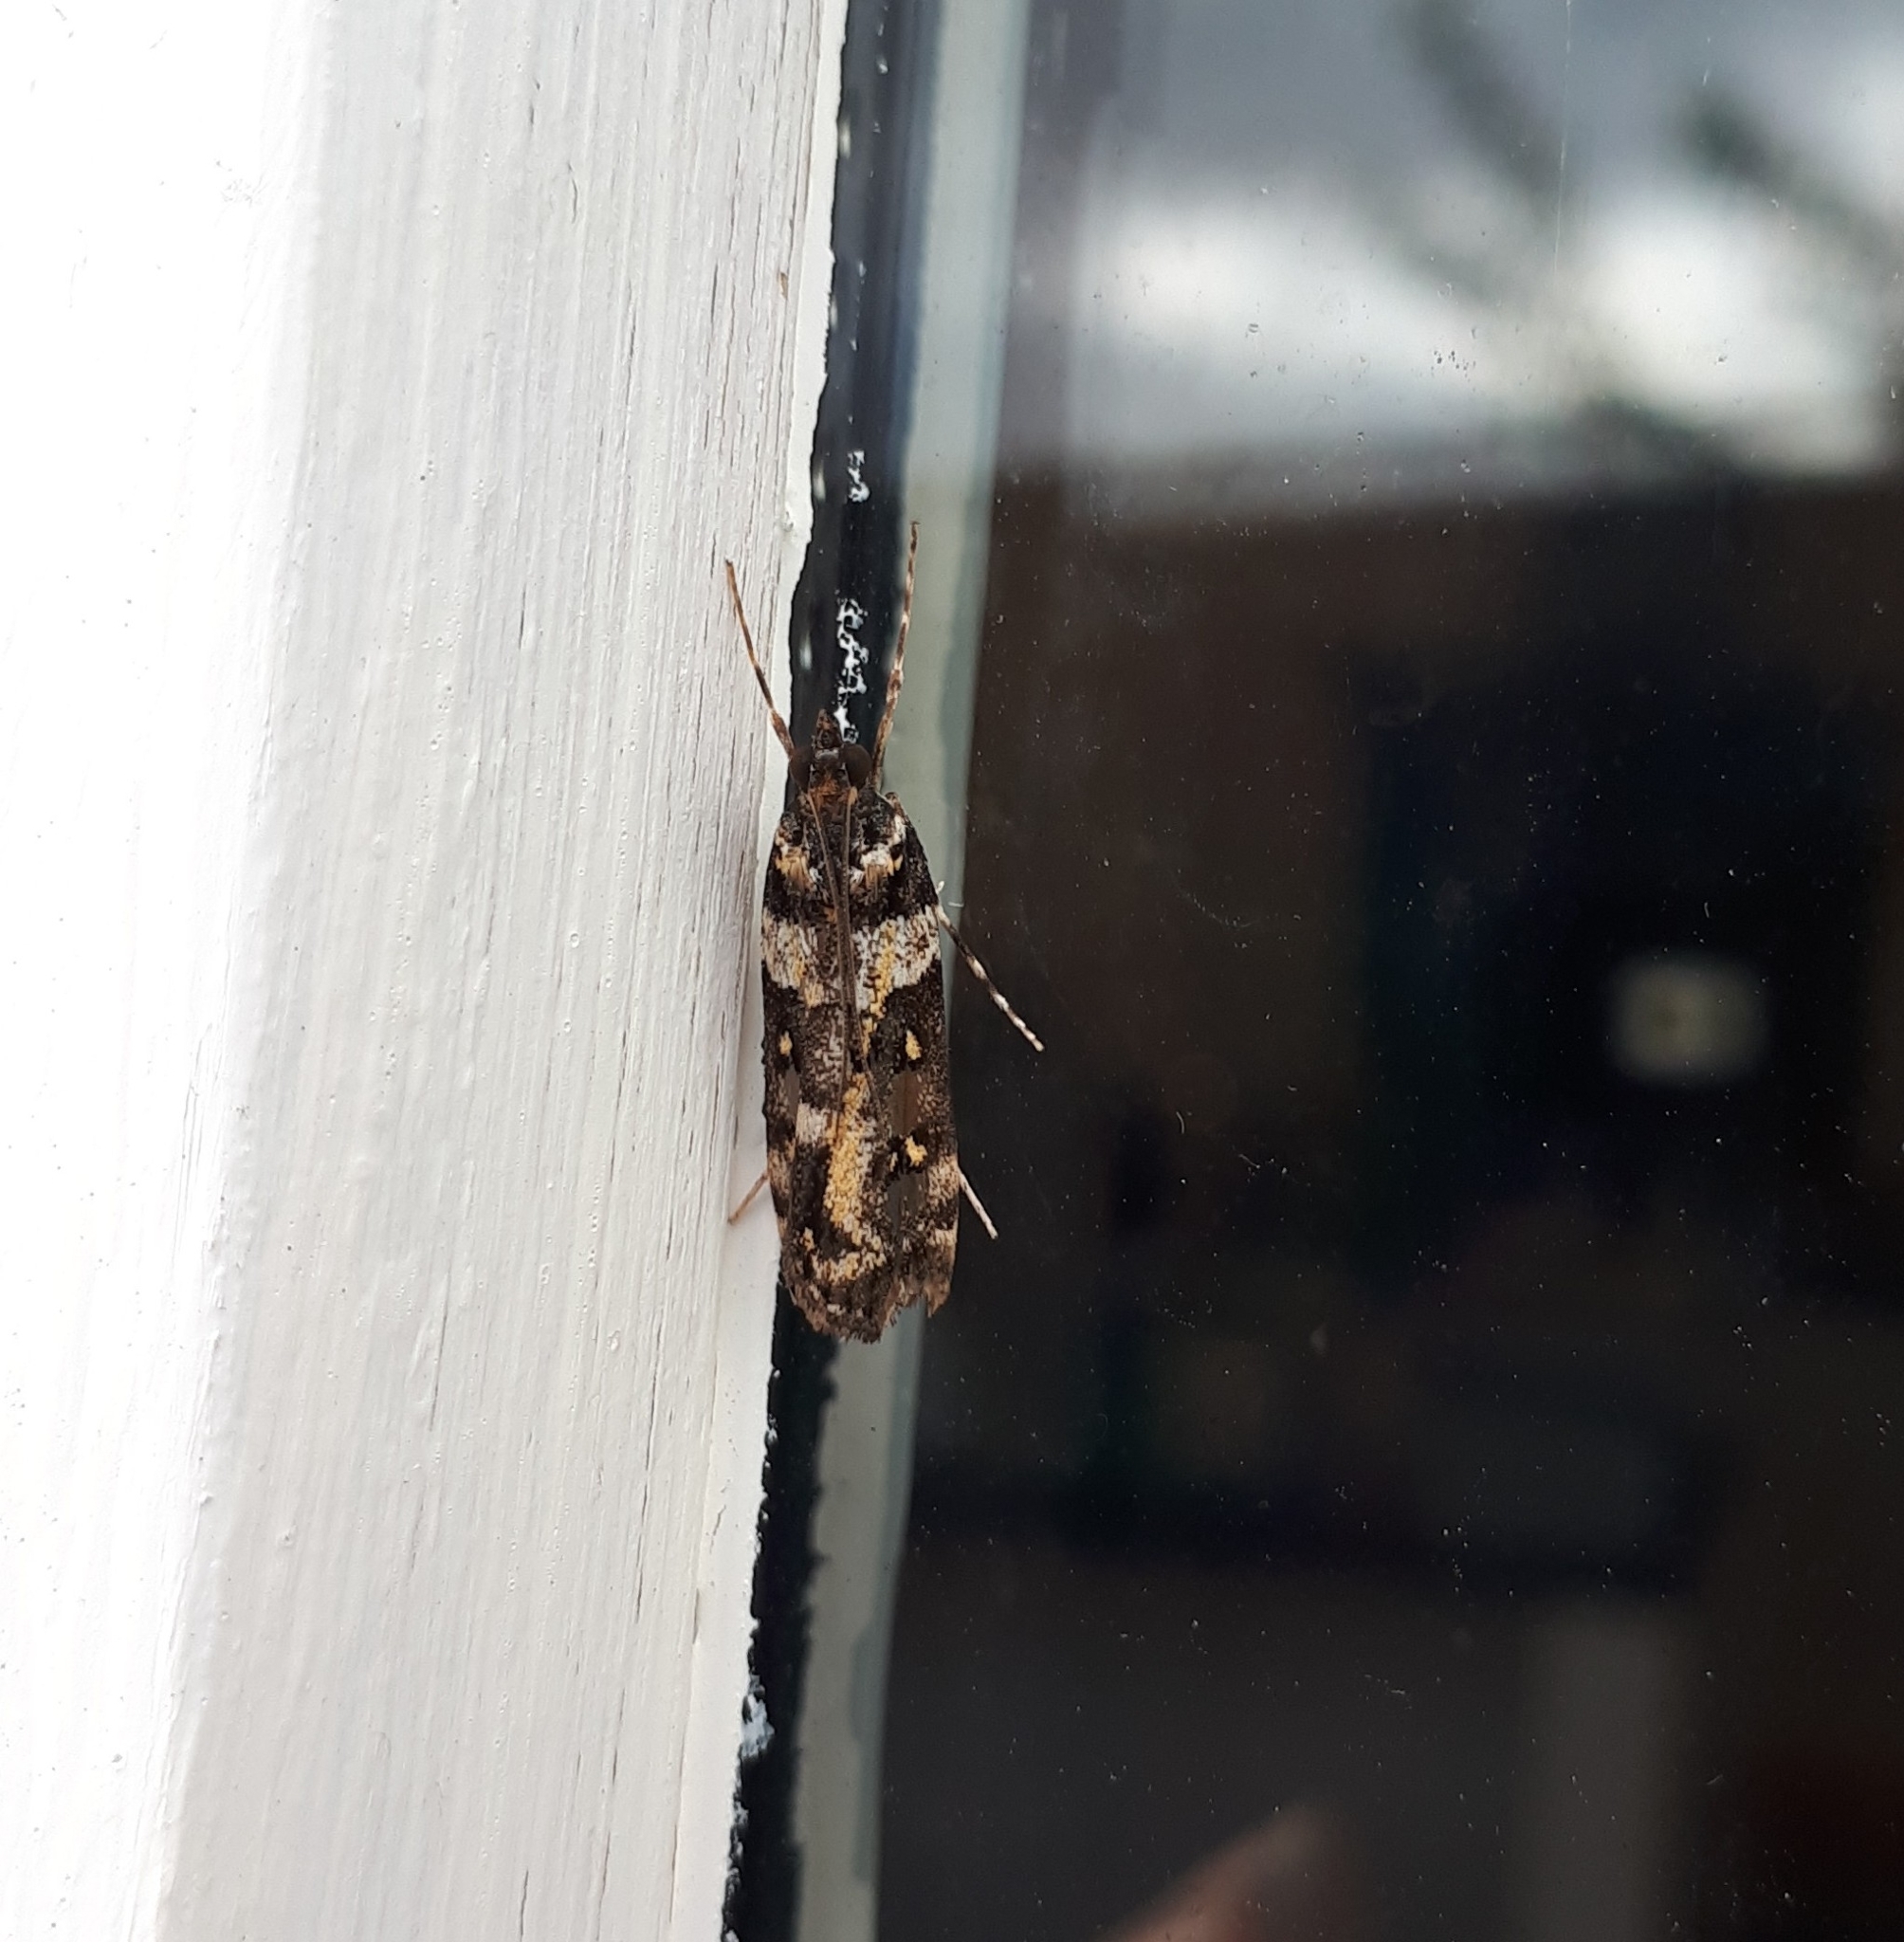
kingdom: Animalia
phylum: Arthropoda
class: Insecta
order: Lepidoptera
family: Crambidae
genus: Eudonia
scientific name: Eudonia diphtheralis
